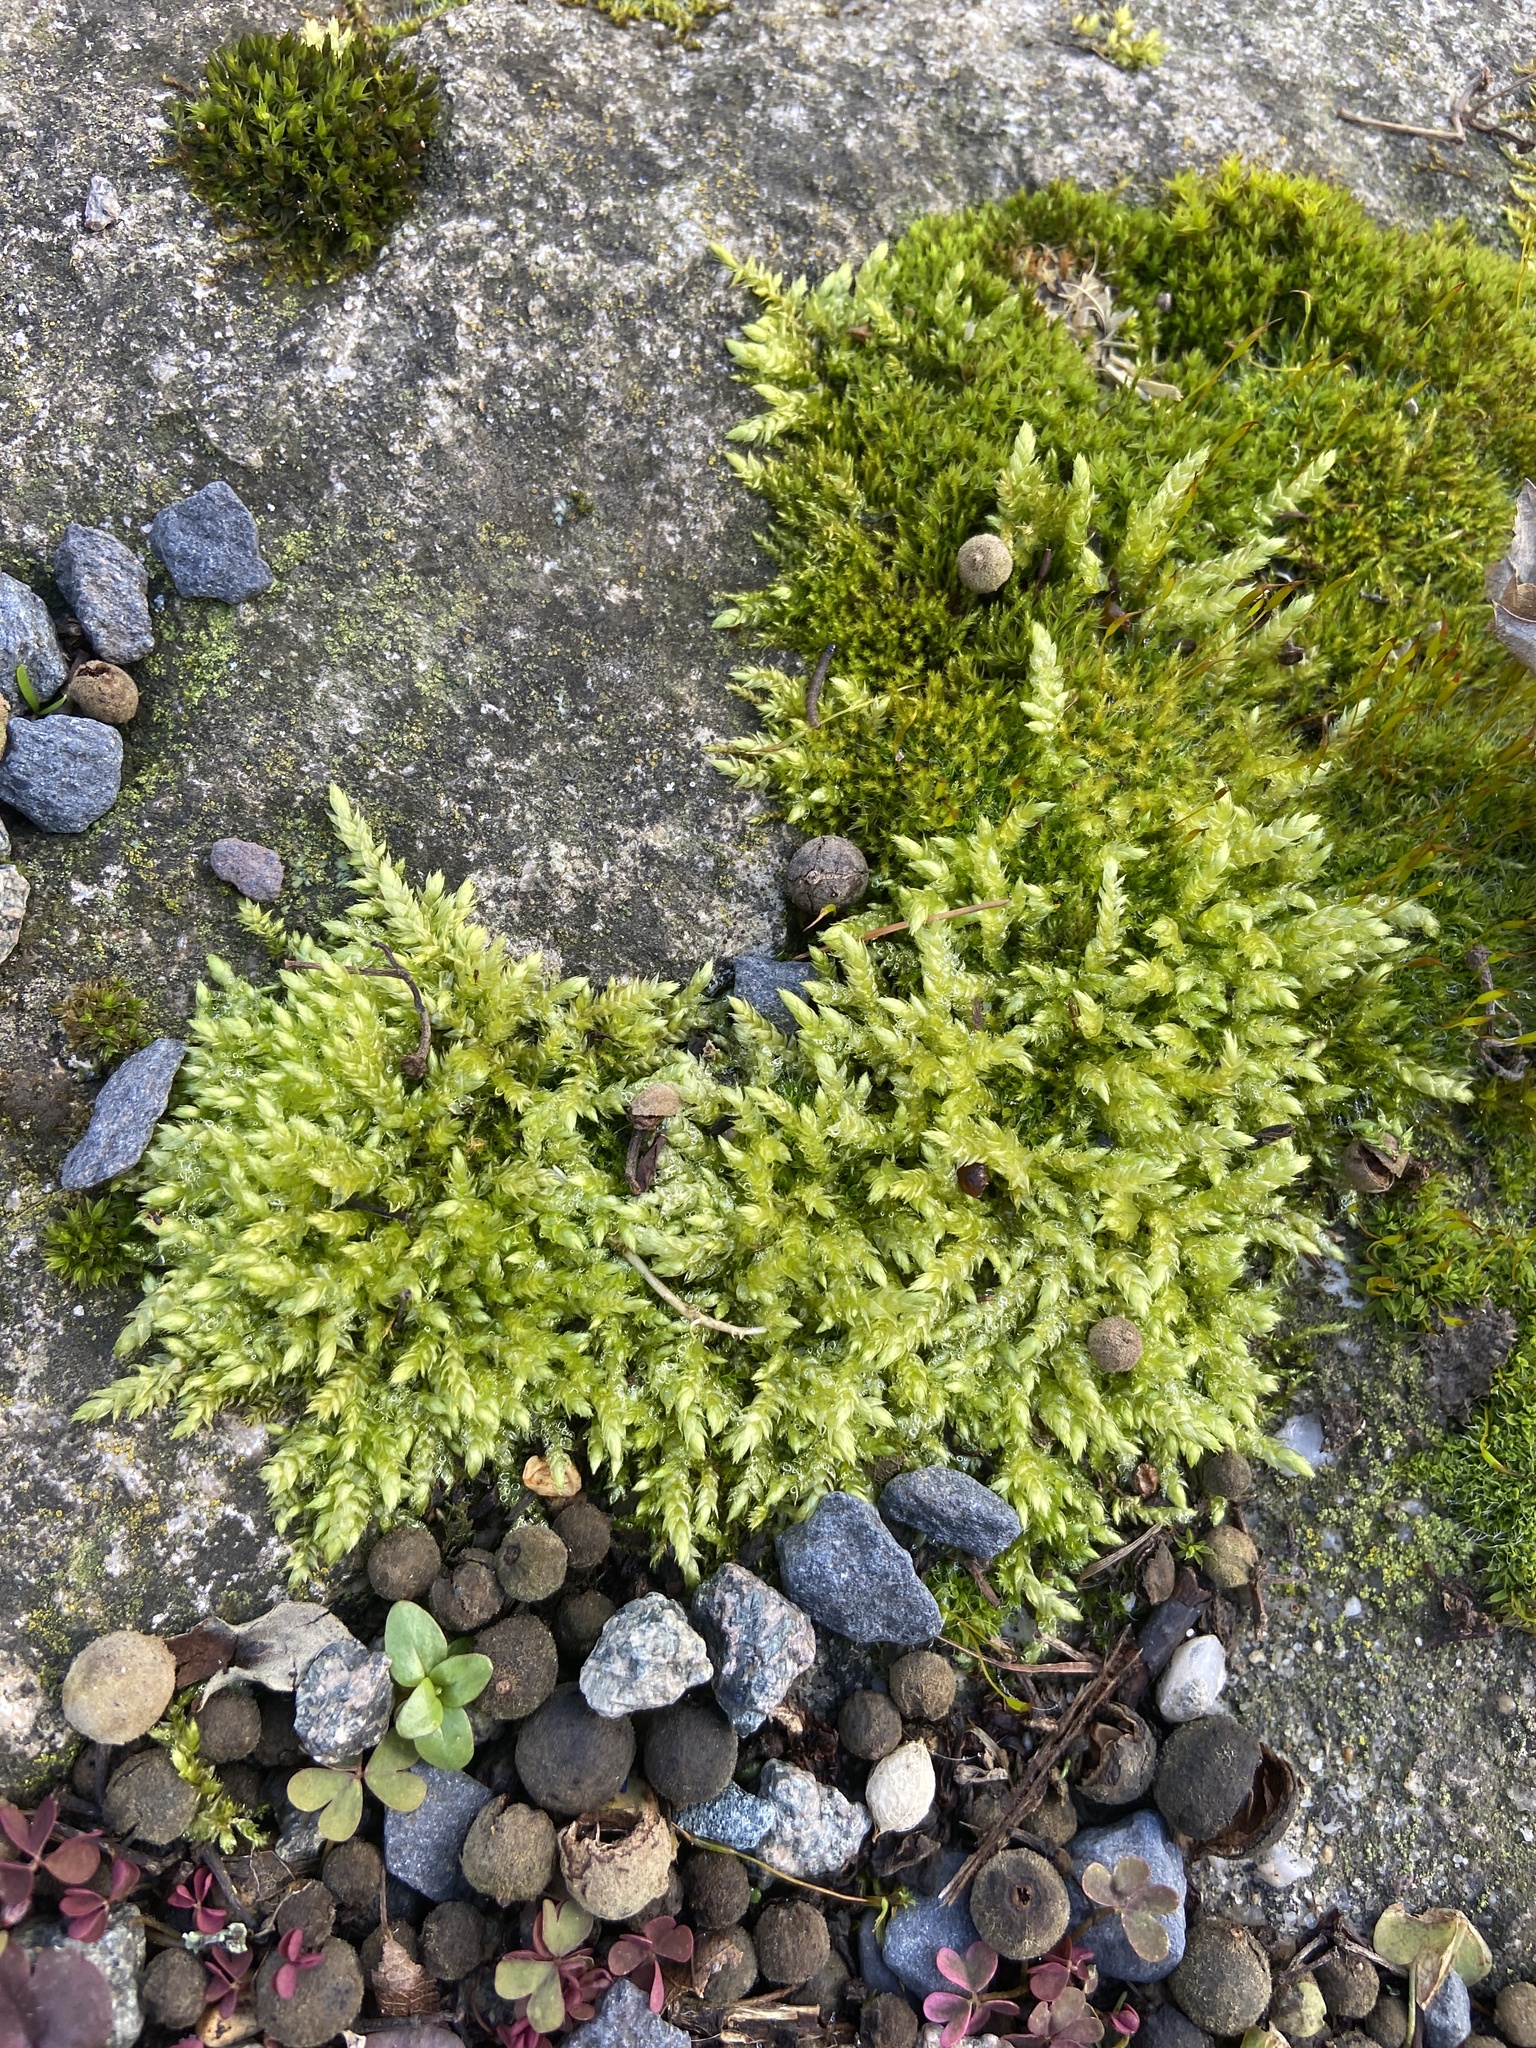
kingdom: Plantae
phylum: Bryophyta
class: Bryopsida
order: Hypnales
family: Brachytheciaceae
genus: Brachythecium
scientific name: Brachythecium rutabulum
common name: Rough-stalked feather-moss
